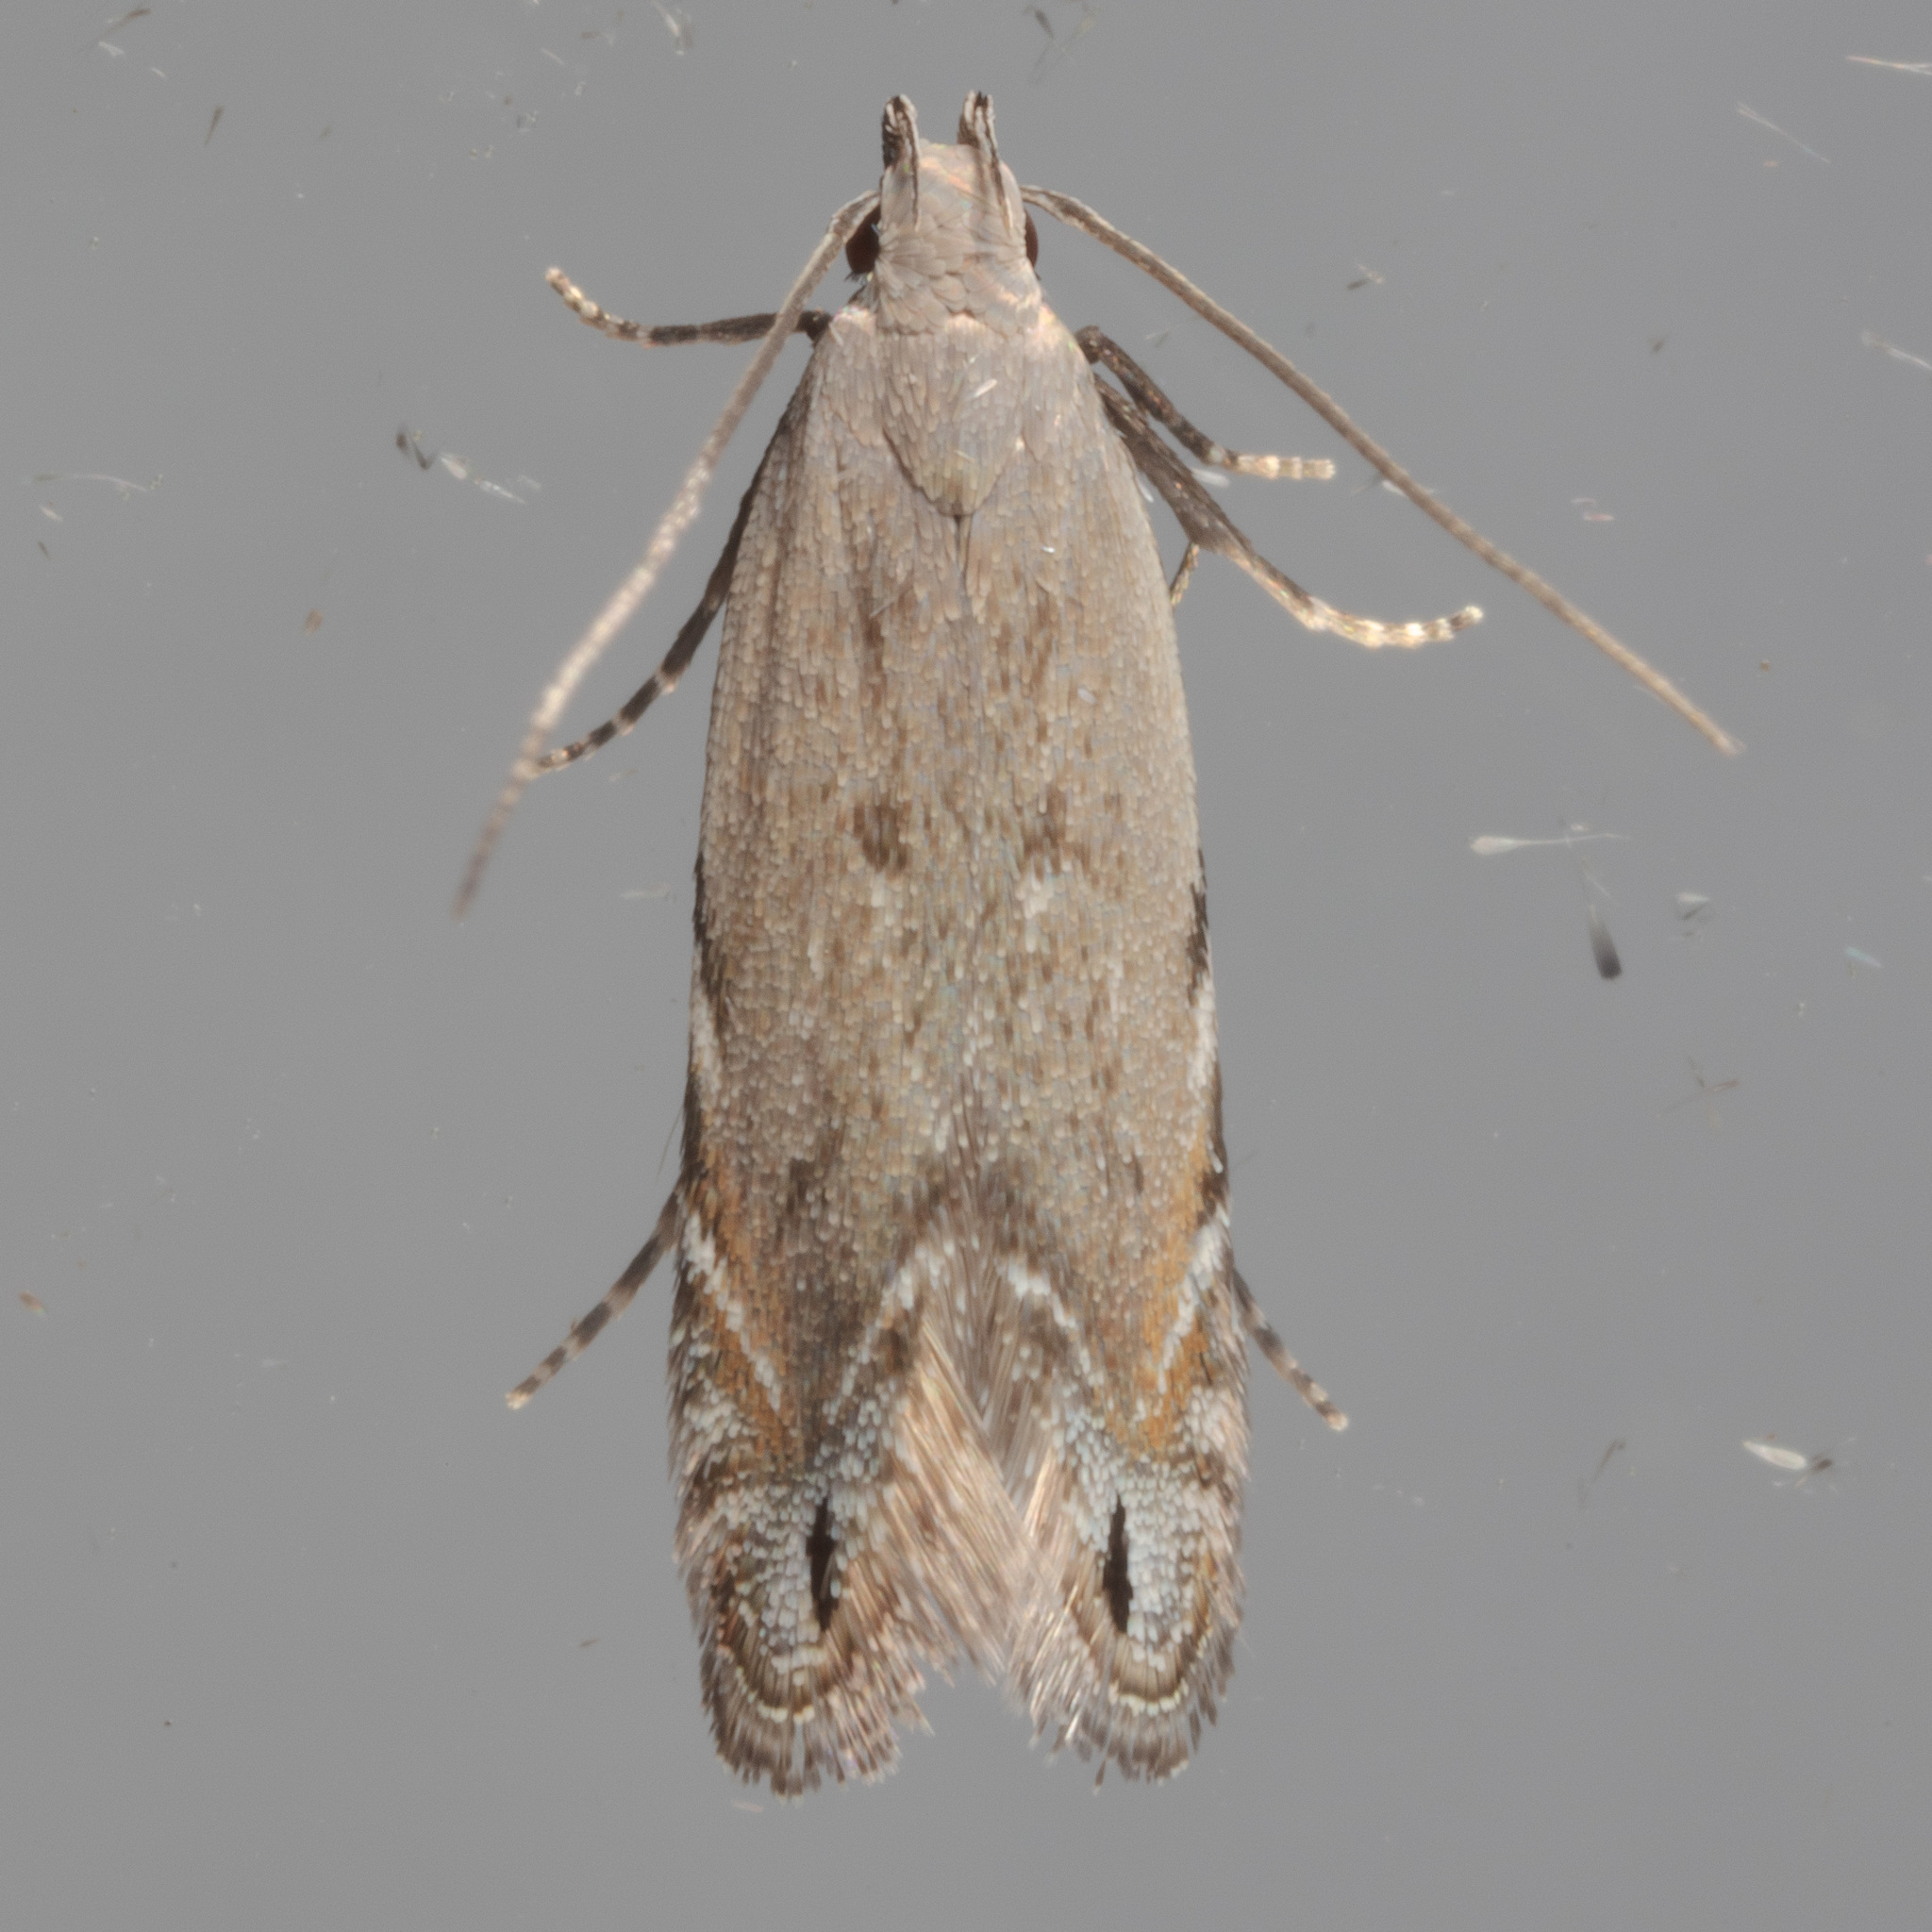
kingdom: Animalia
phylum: Arthropoda
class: Insecta
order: Lepidoptera
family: Gelechiidae
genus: Battaristis
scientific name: Battaristis concinnusella
